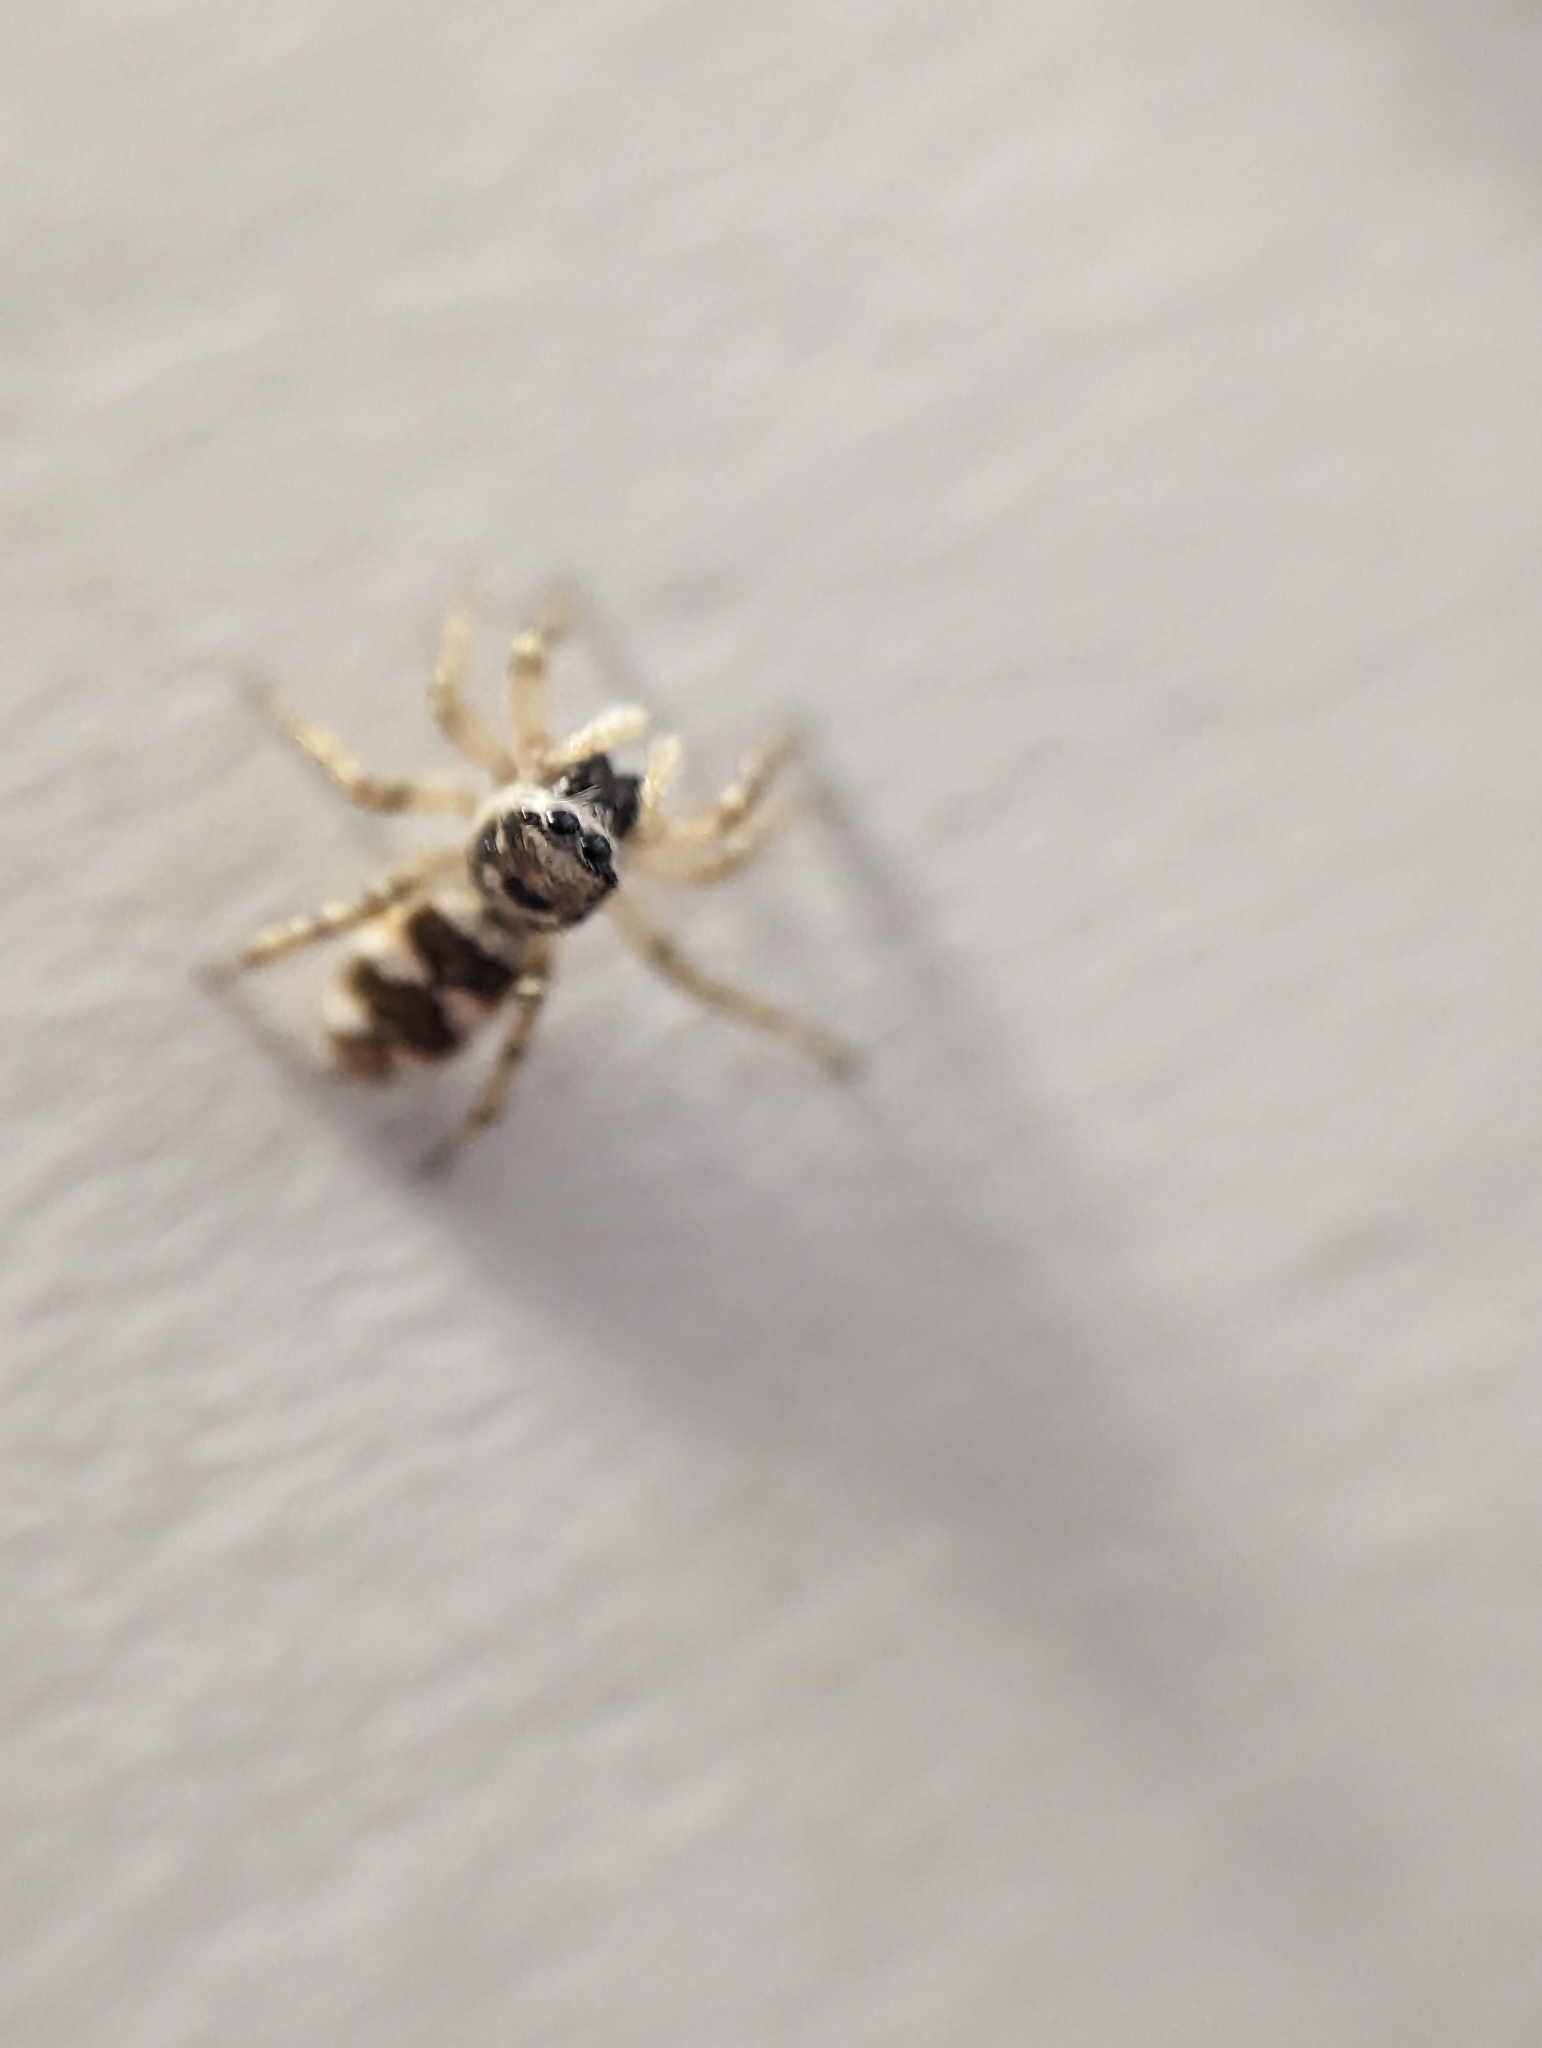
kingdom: Animalia
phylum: Arthropoda
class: Arachnida
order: Araneae
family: Salticidae
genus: Salticus
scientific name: Salticus scenicus
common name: Zebra jumper
